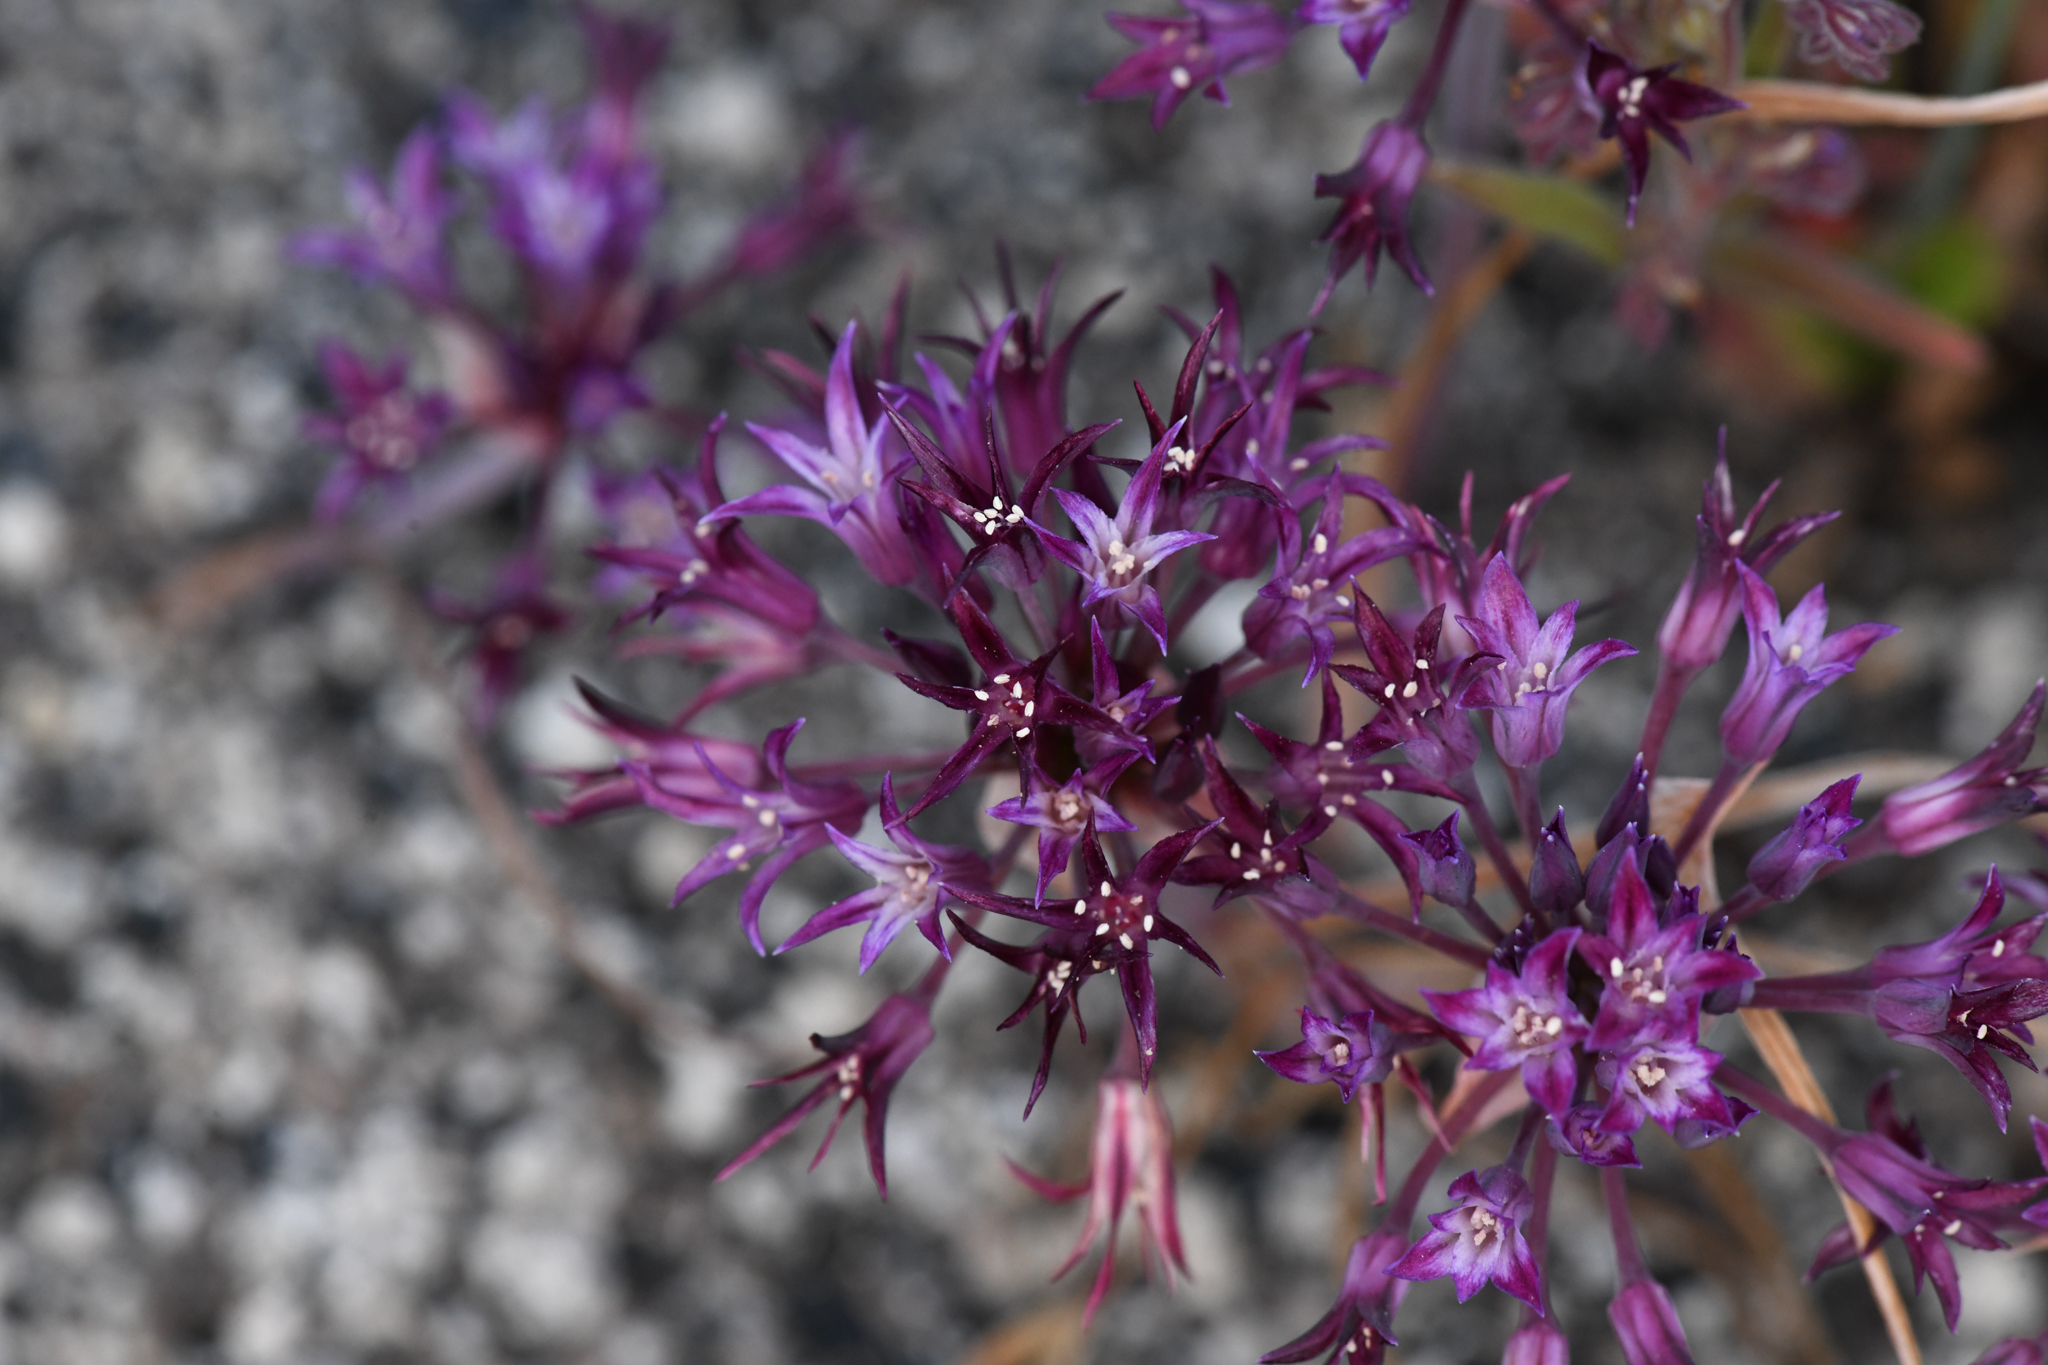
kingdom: Plantae
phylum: Tracheophyta
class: Liliopsida
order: Asparagales
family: Amaryllidaceae
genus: Allium
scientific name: Allium abramsii
